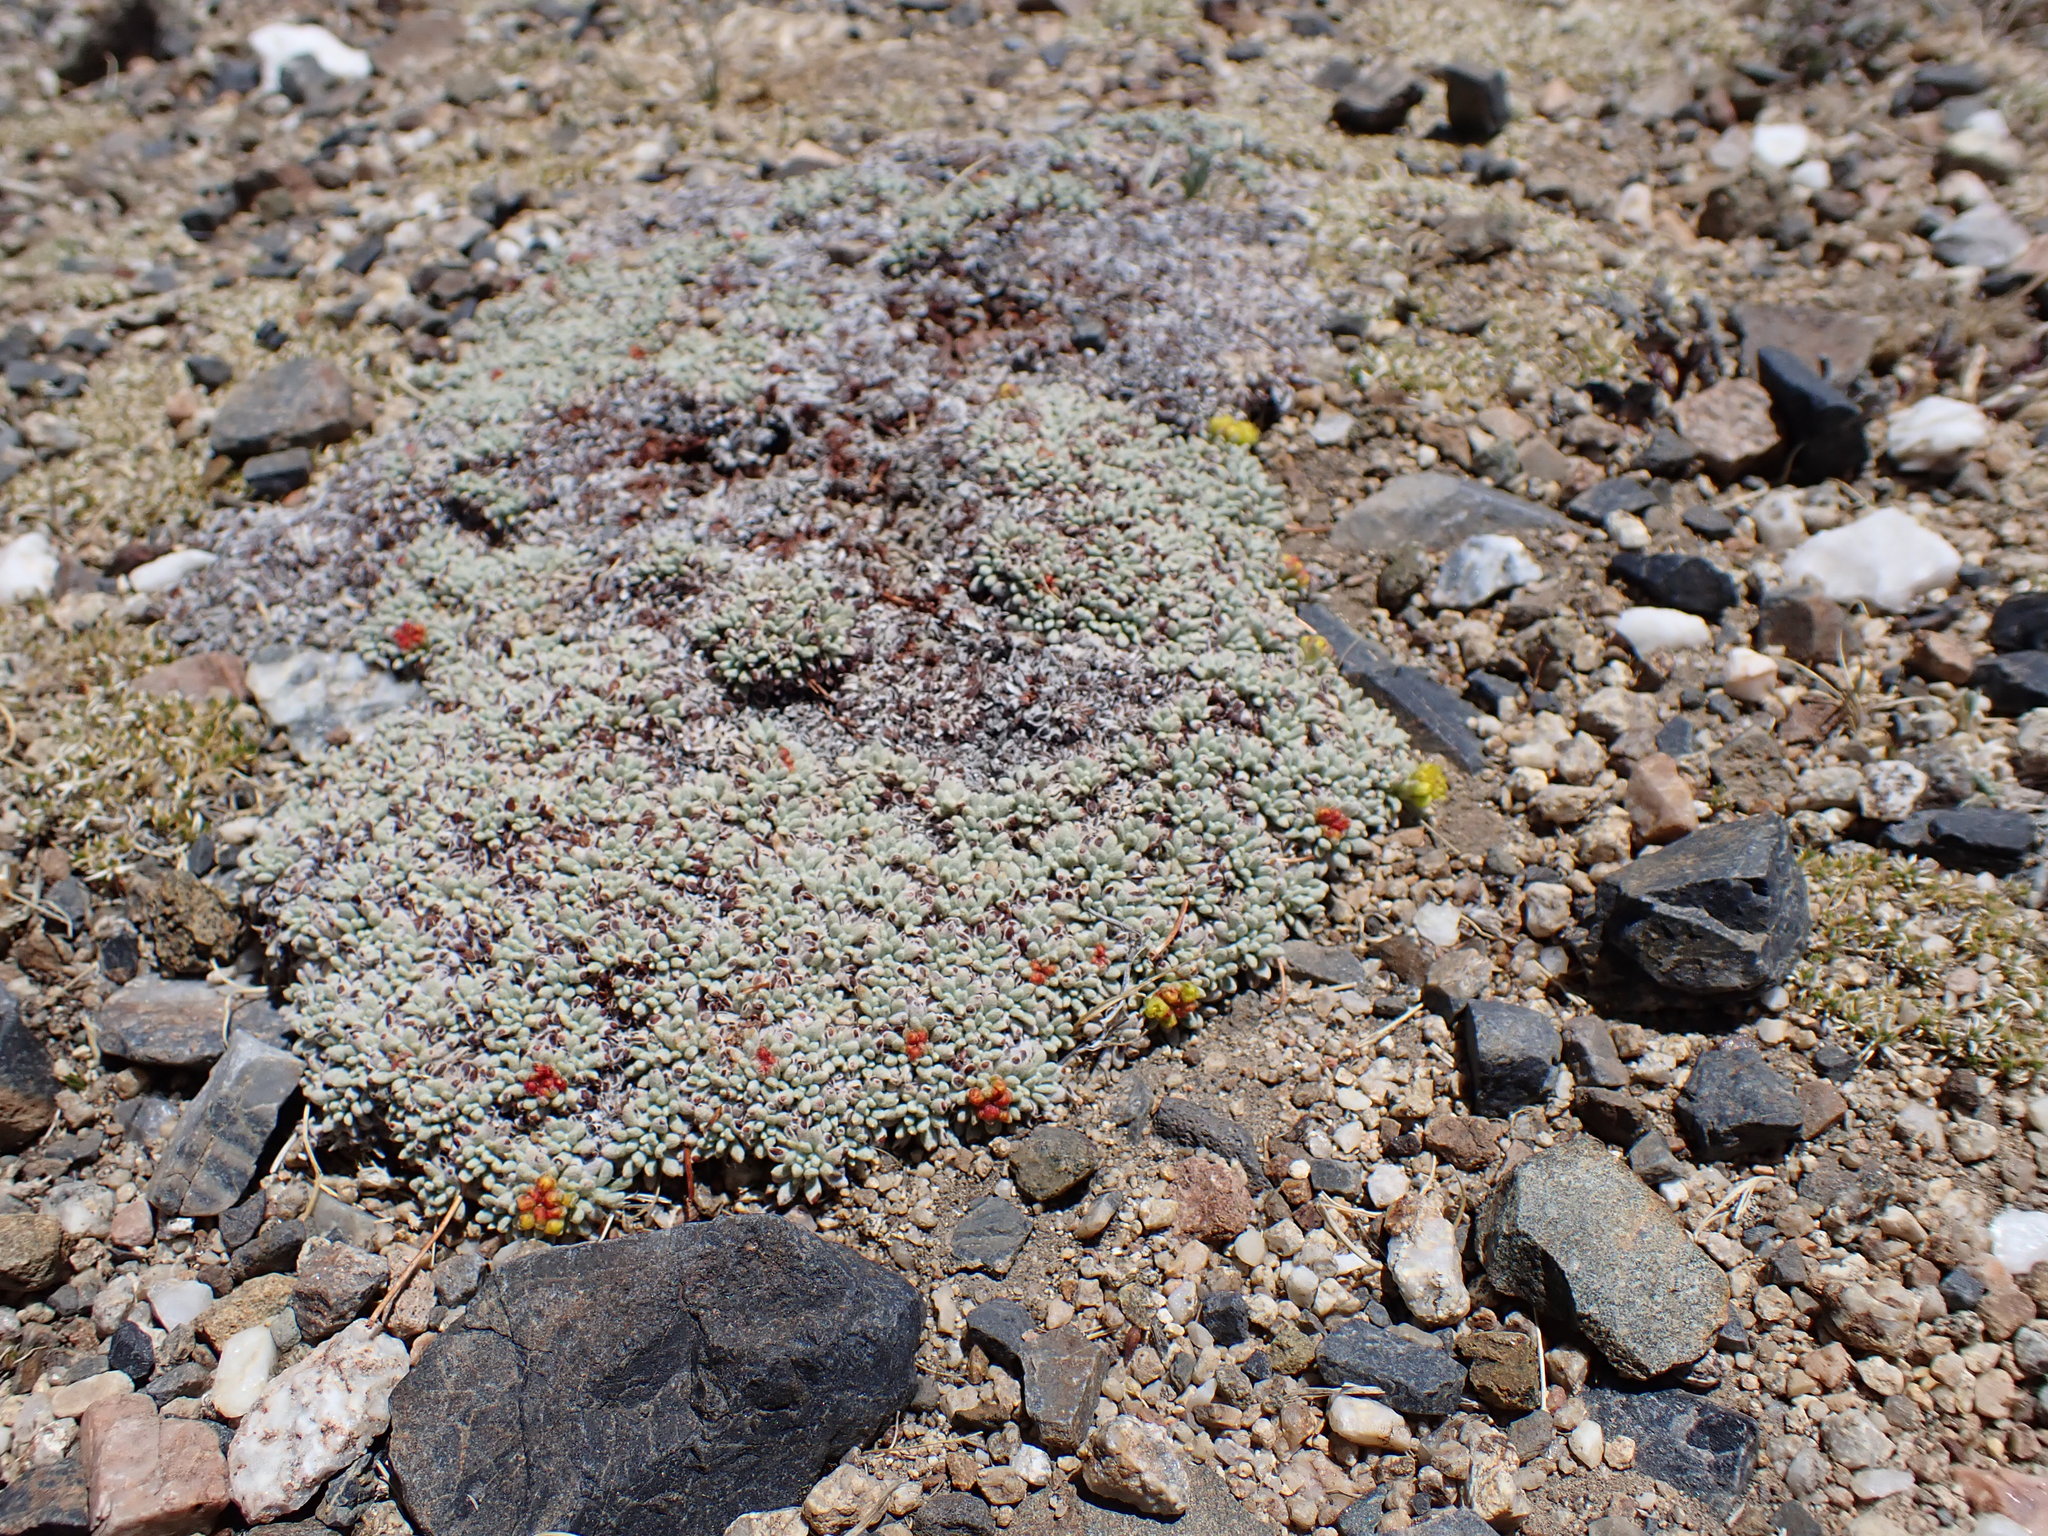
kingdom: Plantae
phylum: Tracheophyta
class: Magnoliopsida
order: Caryophyllales
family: Polygonaceae
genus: Eriogonum
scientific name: Eriogonum caespitosum
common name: Matted wild buckwheat
